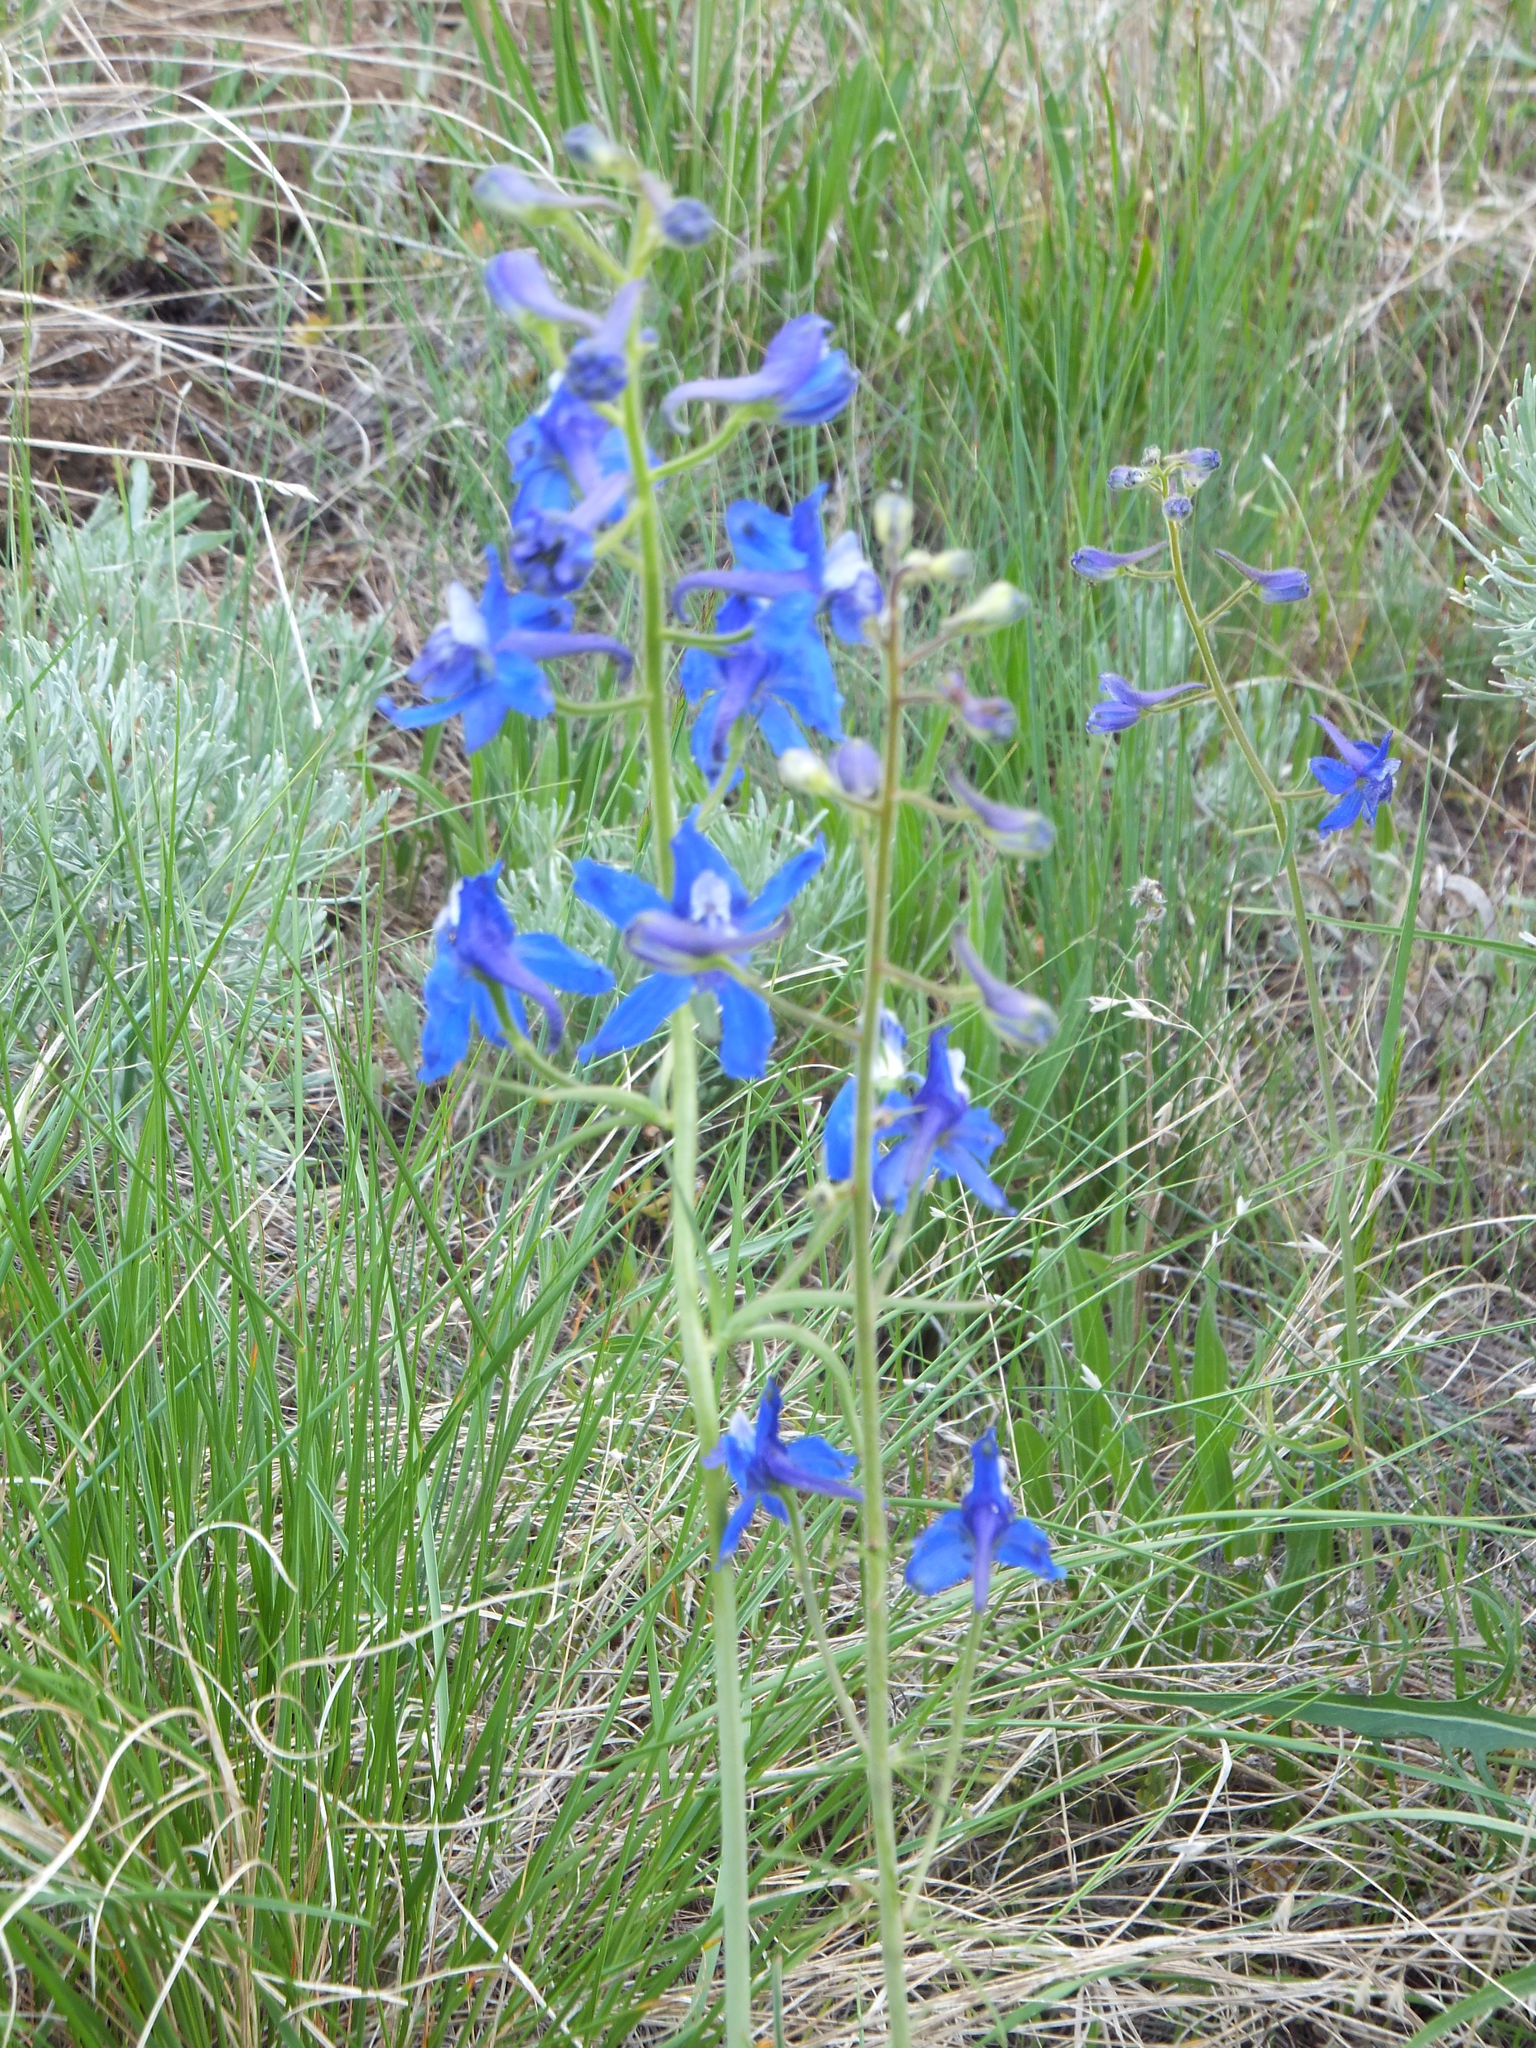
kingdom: Plantae
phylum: Tracheophyta
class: Magnoliopsida
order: Ranunculales
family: Ranunculaceae
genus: Delphinium
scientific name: Delphinium nuttallianum
